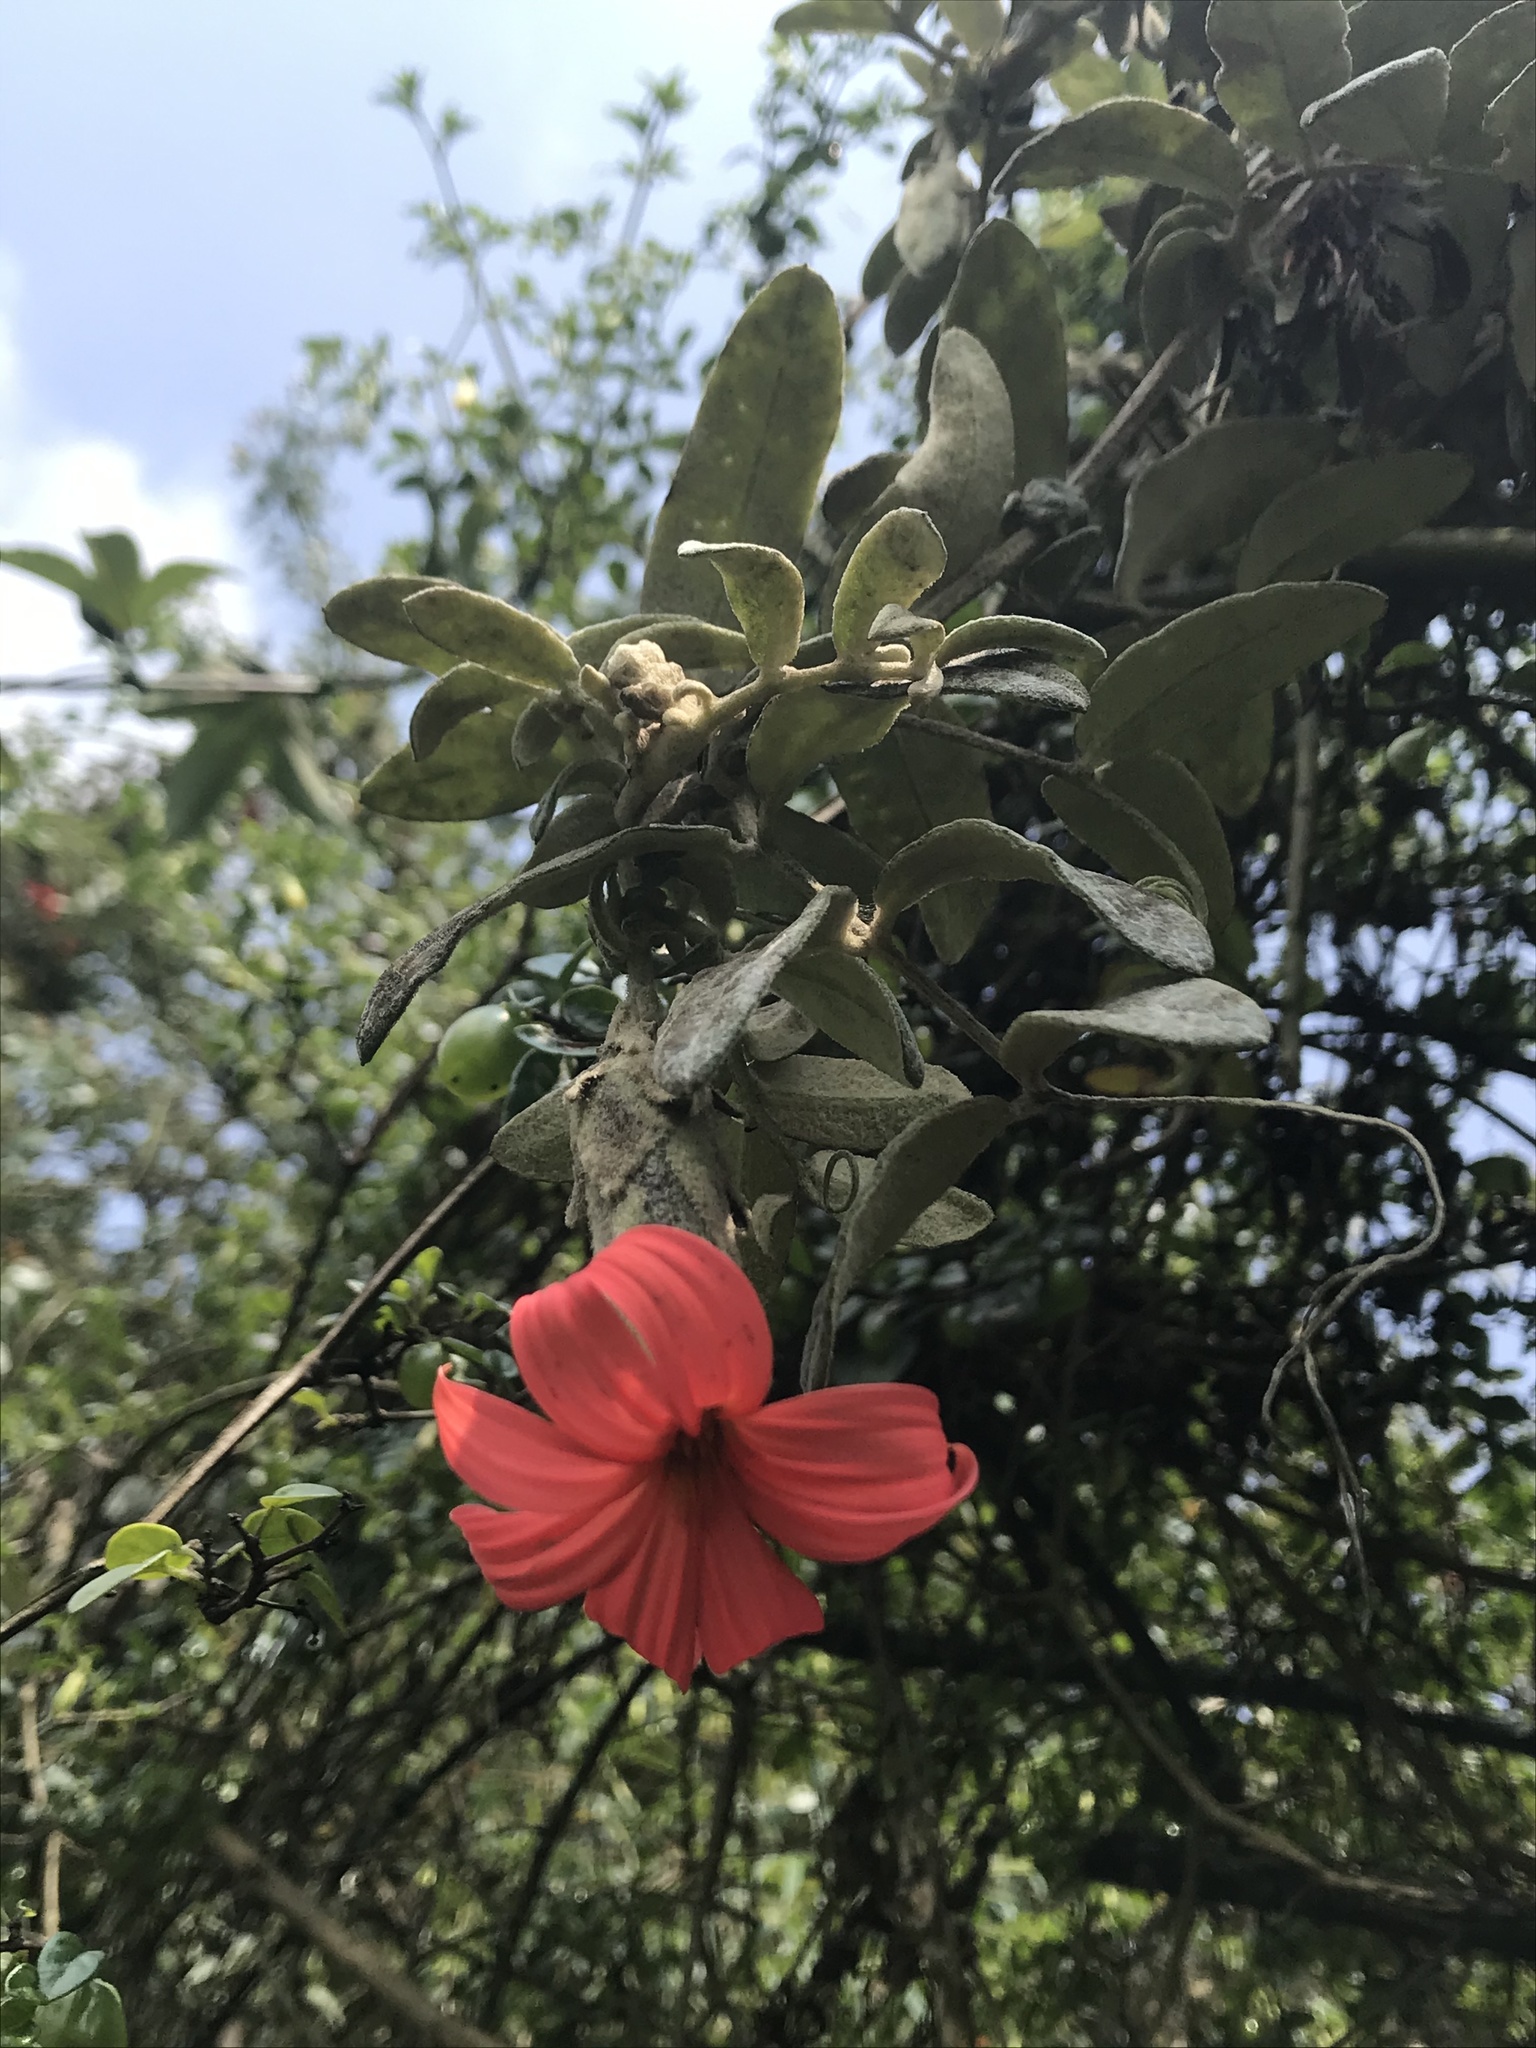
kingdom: Plantae
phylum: Tracheophyta
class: Magnoliopsida
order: Asterales
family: Asteraceae
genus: Mutisia
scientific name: Mutisia clematis
